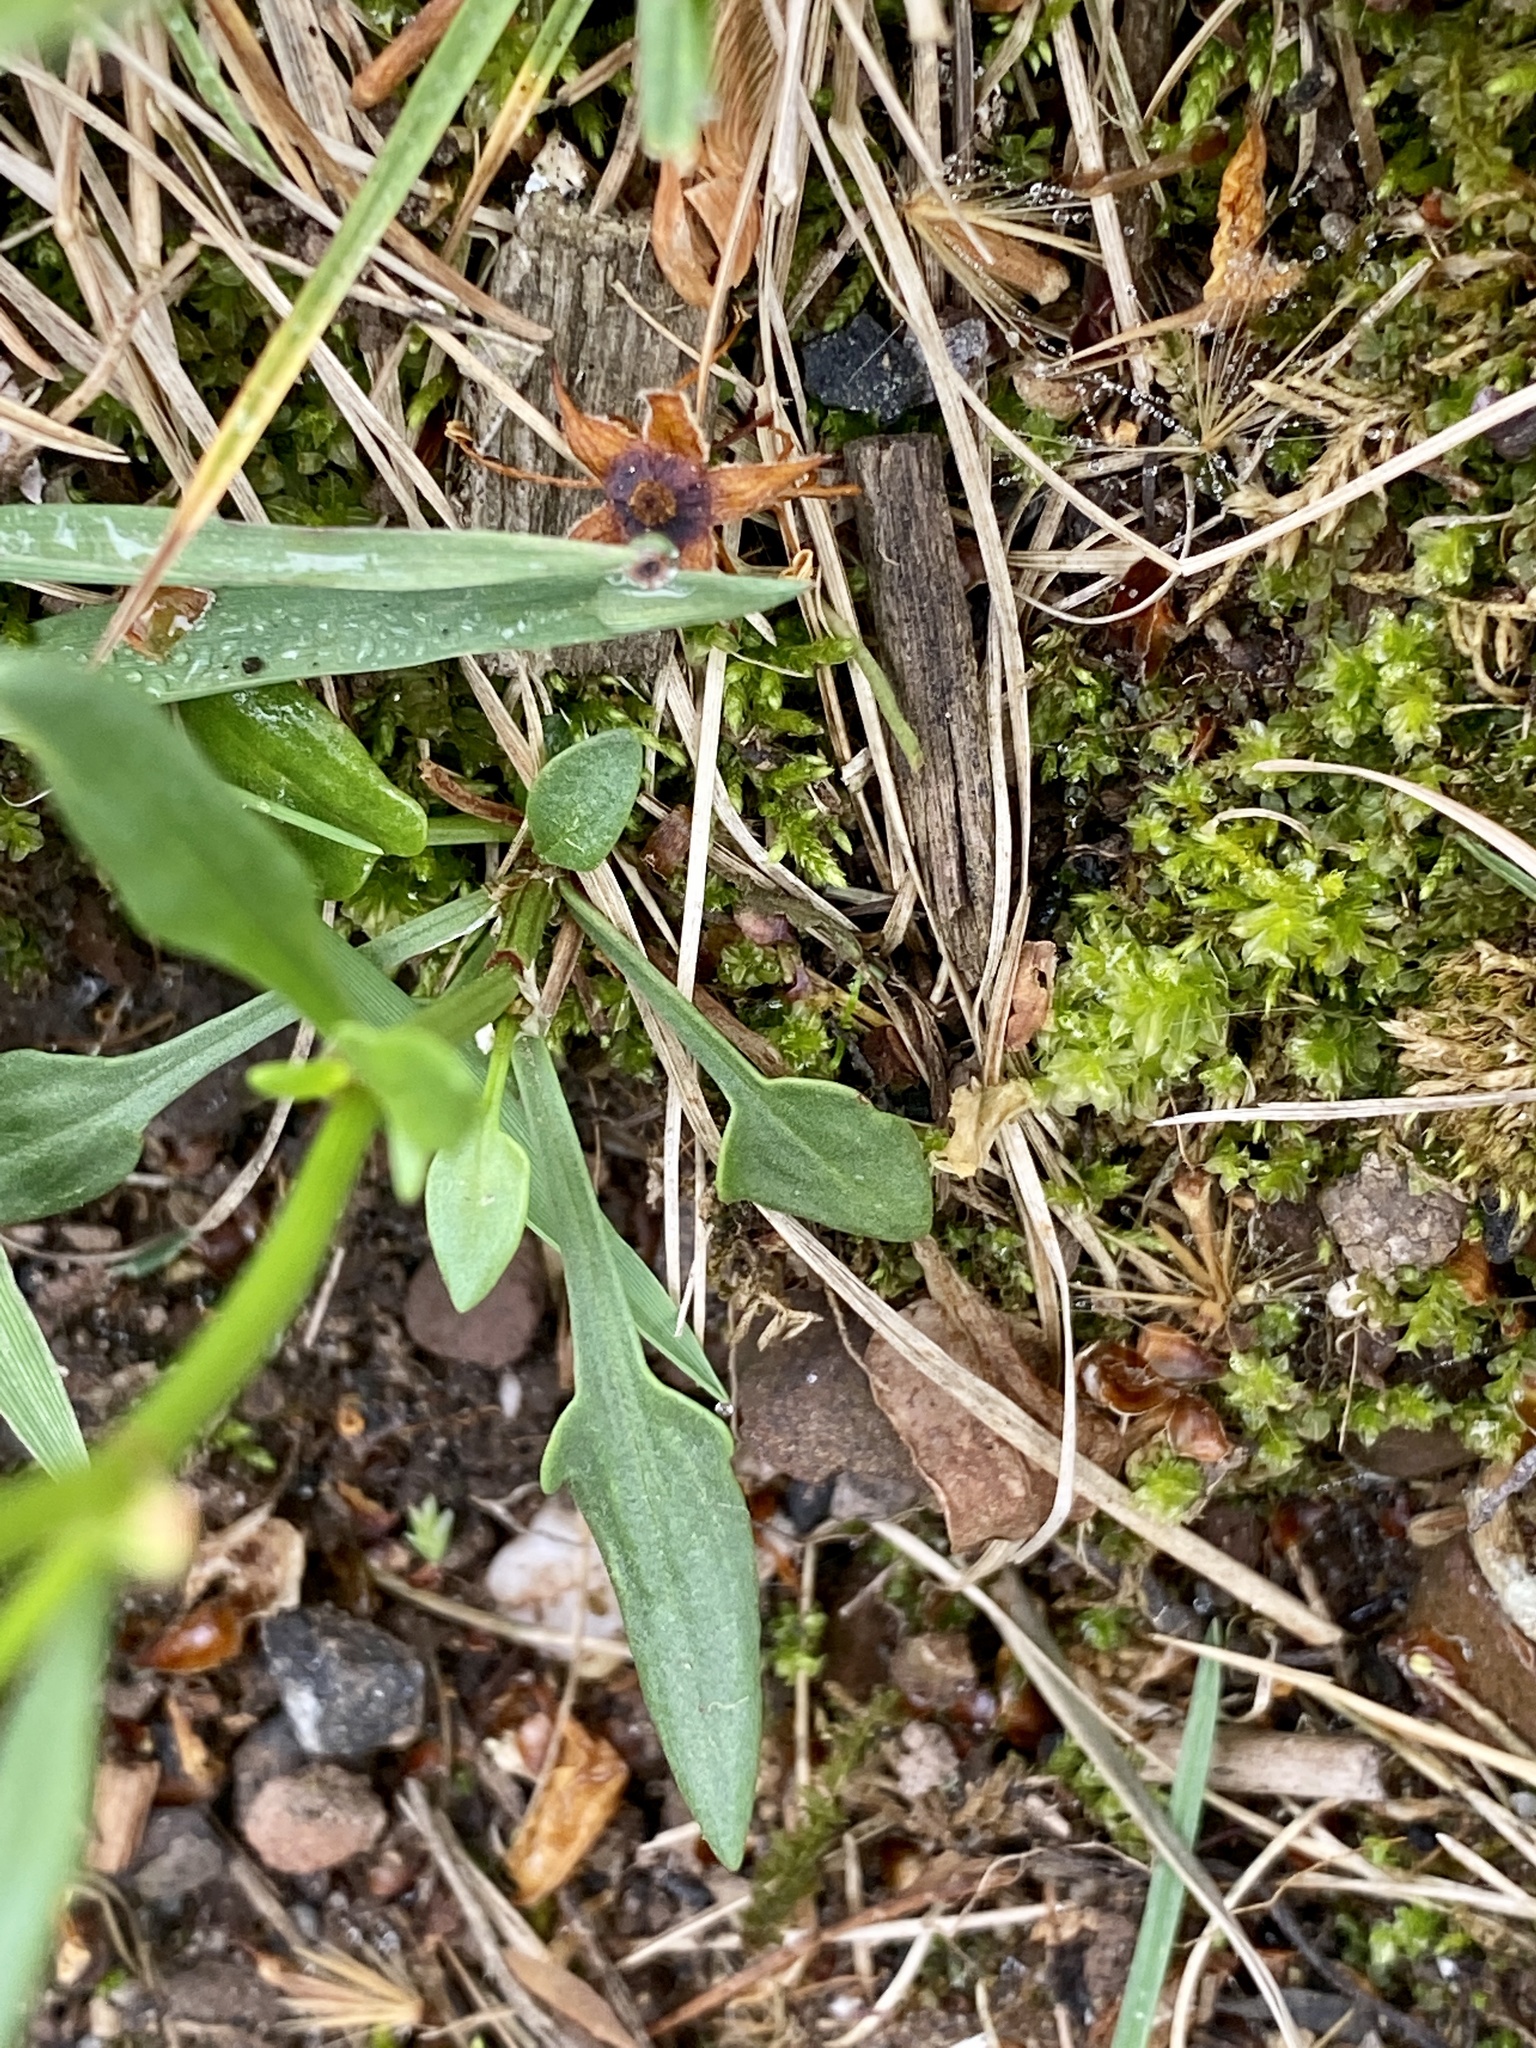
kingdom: Plantae
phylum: Tracheophyta
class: Magnoliopsida
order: Caryophyllales
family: Polygonaceae
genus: Rumex
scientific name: Rumex acetosella
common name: Common sheep sorrel
